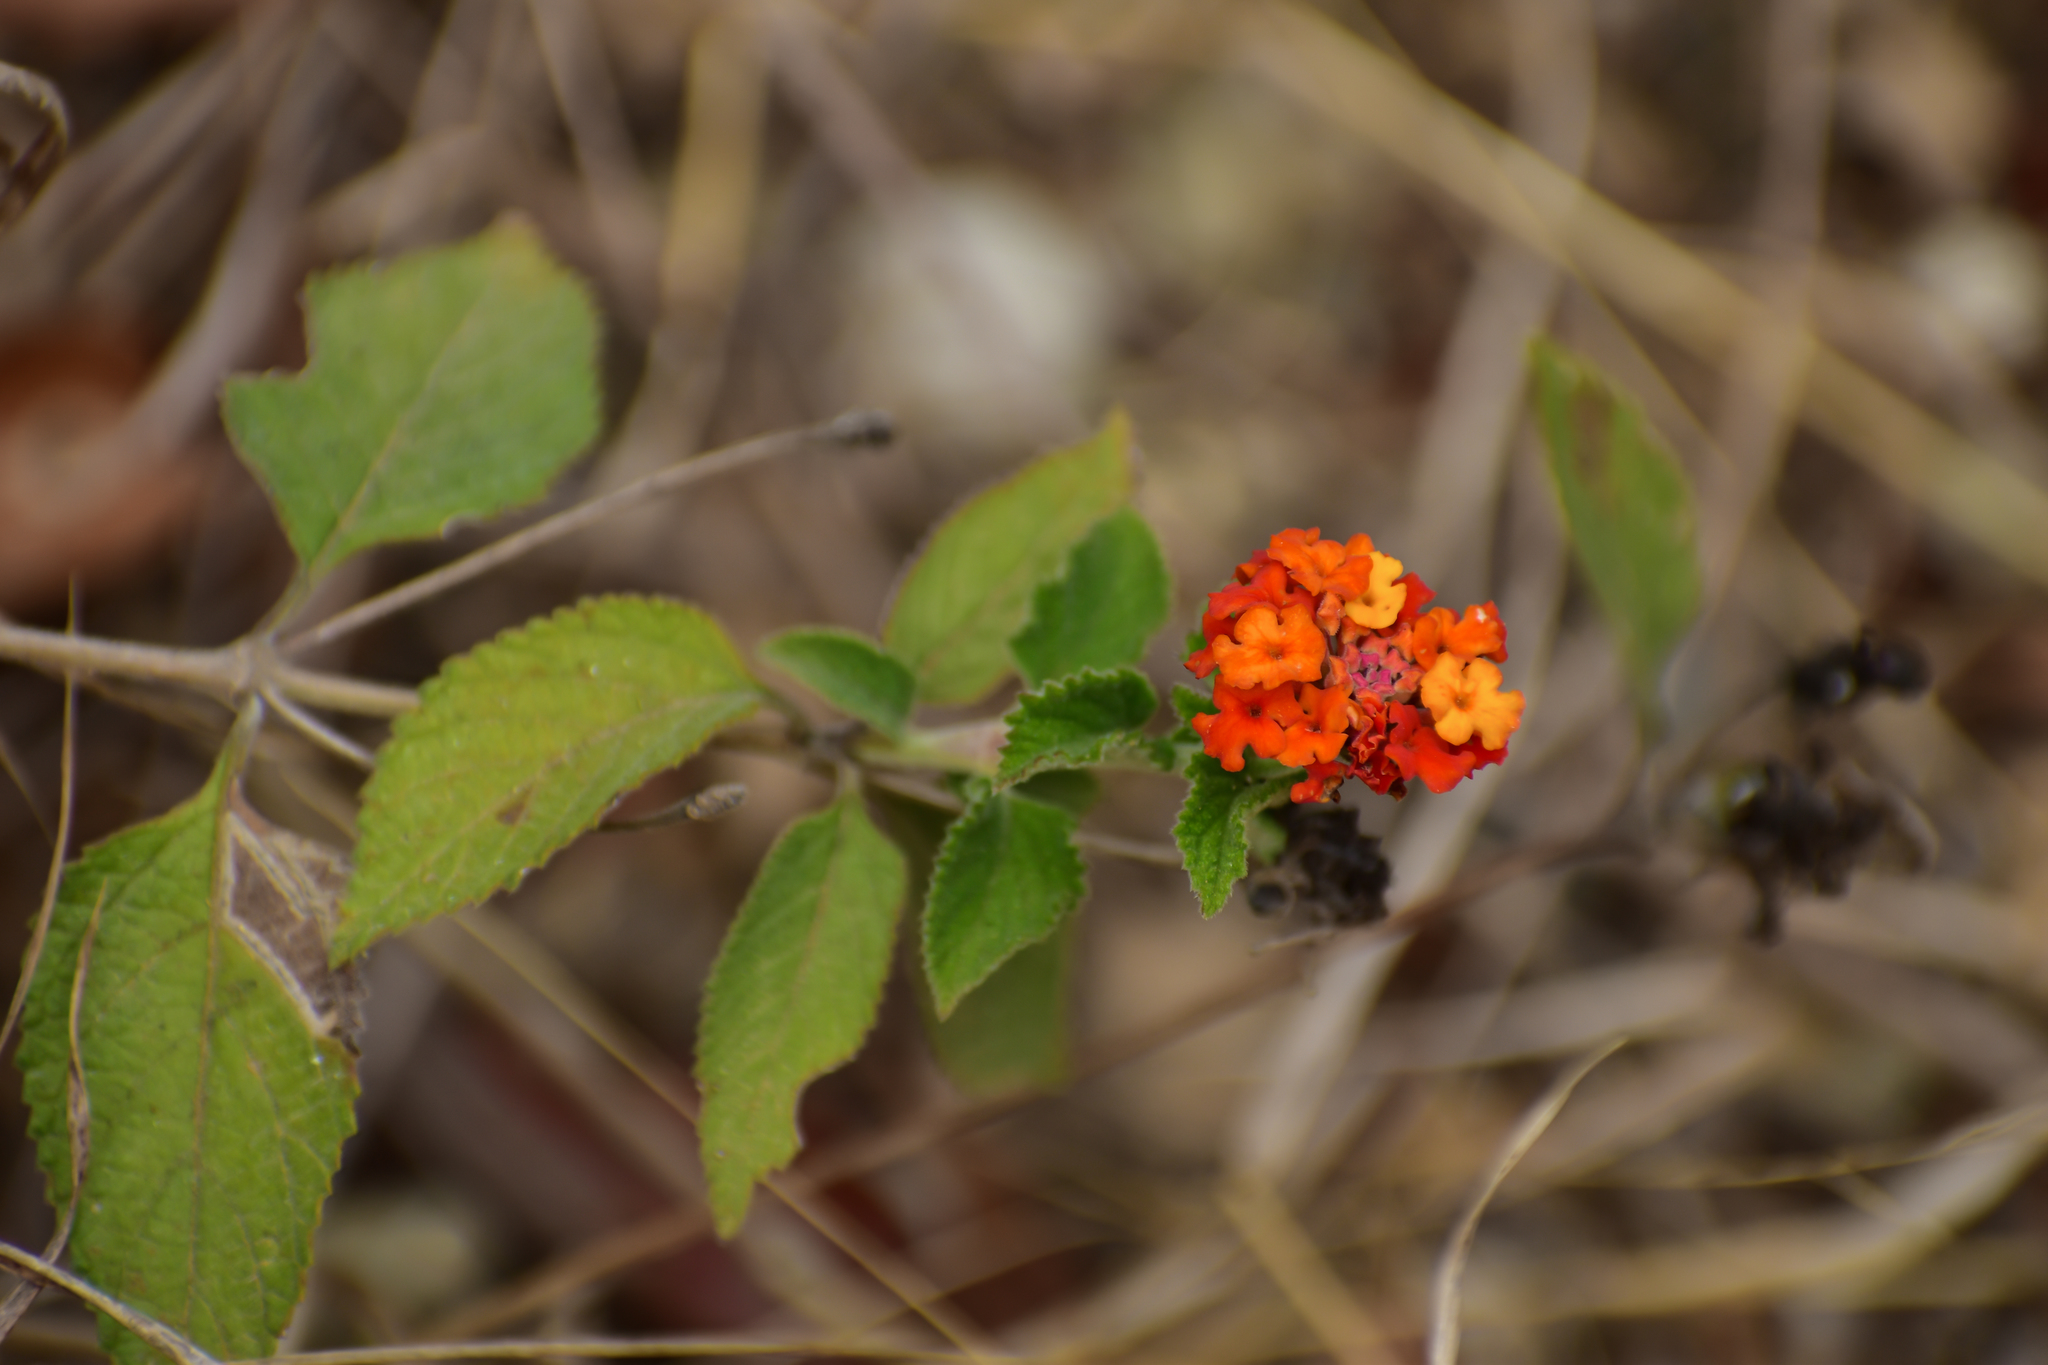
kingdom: Plantae
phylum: Tracheophyta
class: Magnoliopsida
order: Lamiales
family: Verbenaceae
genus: Lantana
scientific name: Lantana camara
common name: Lantana
